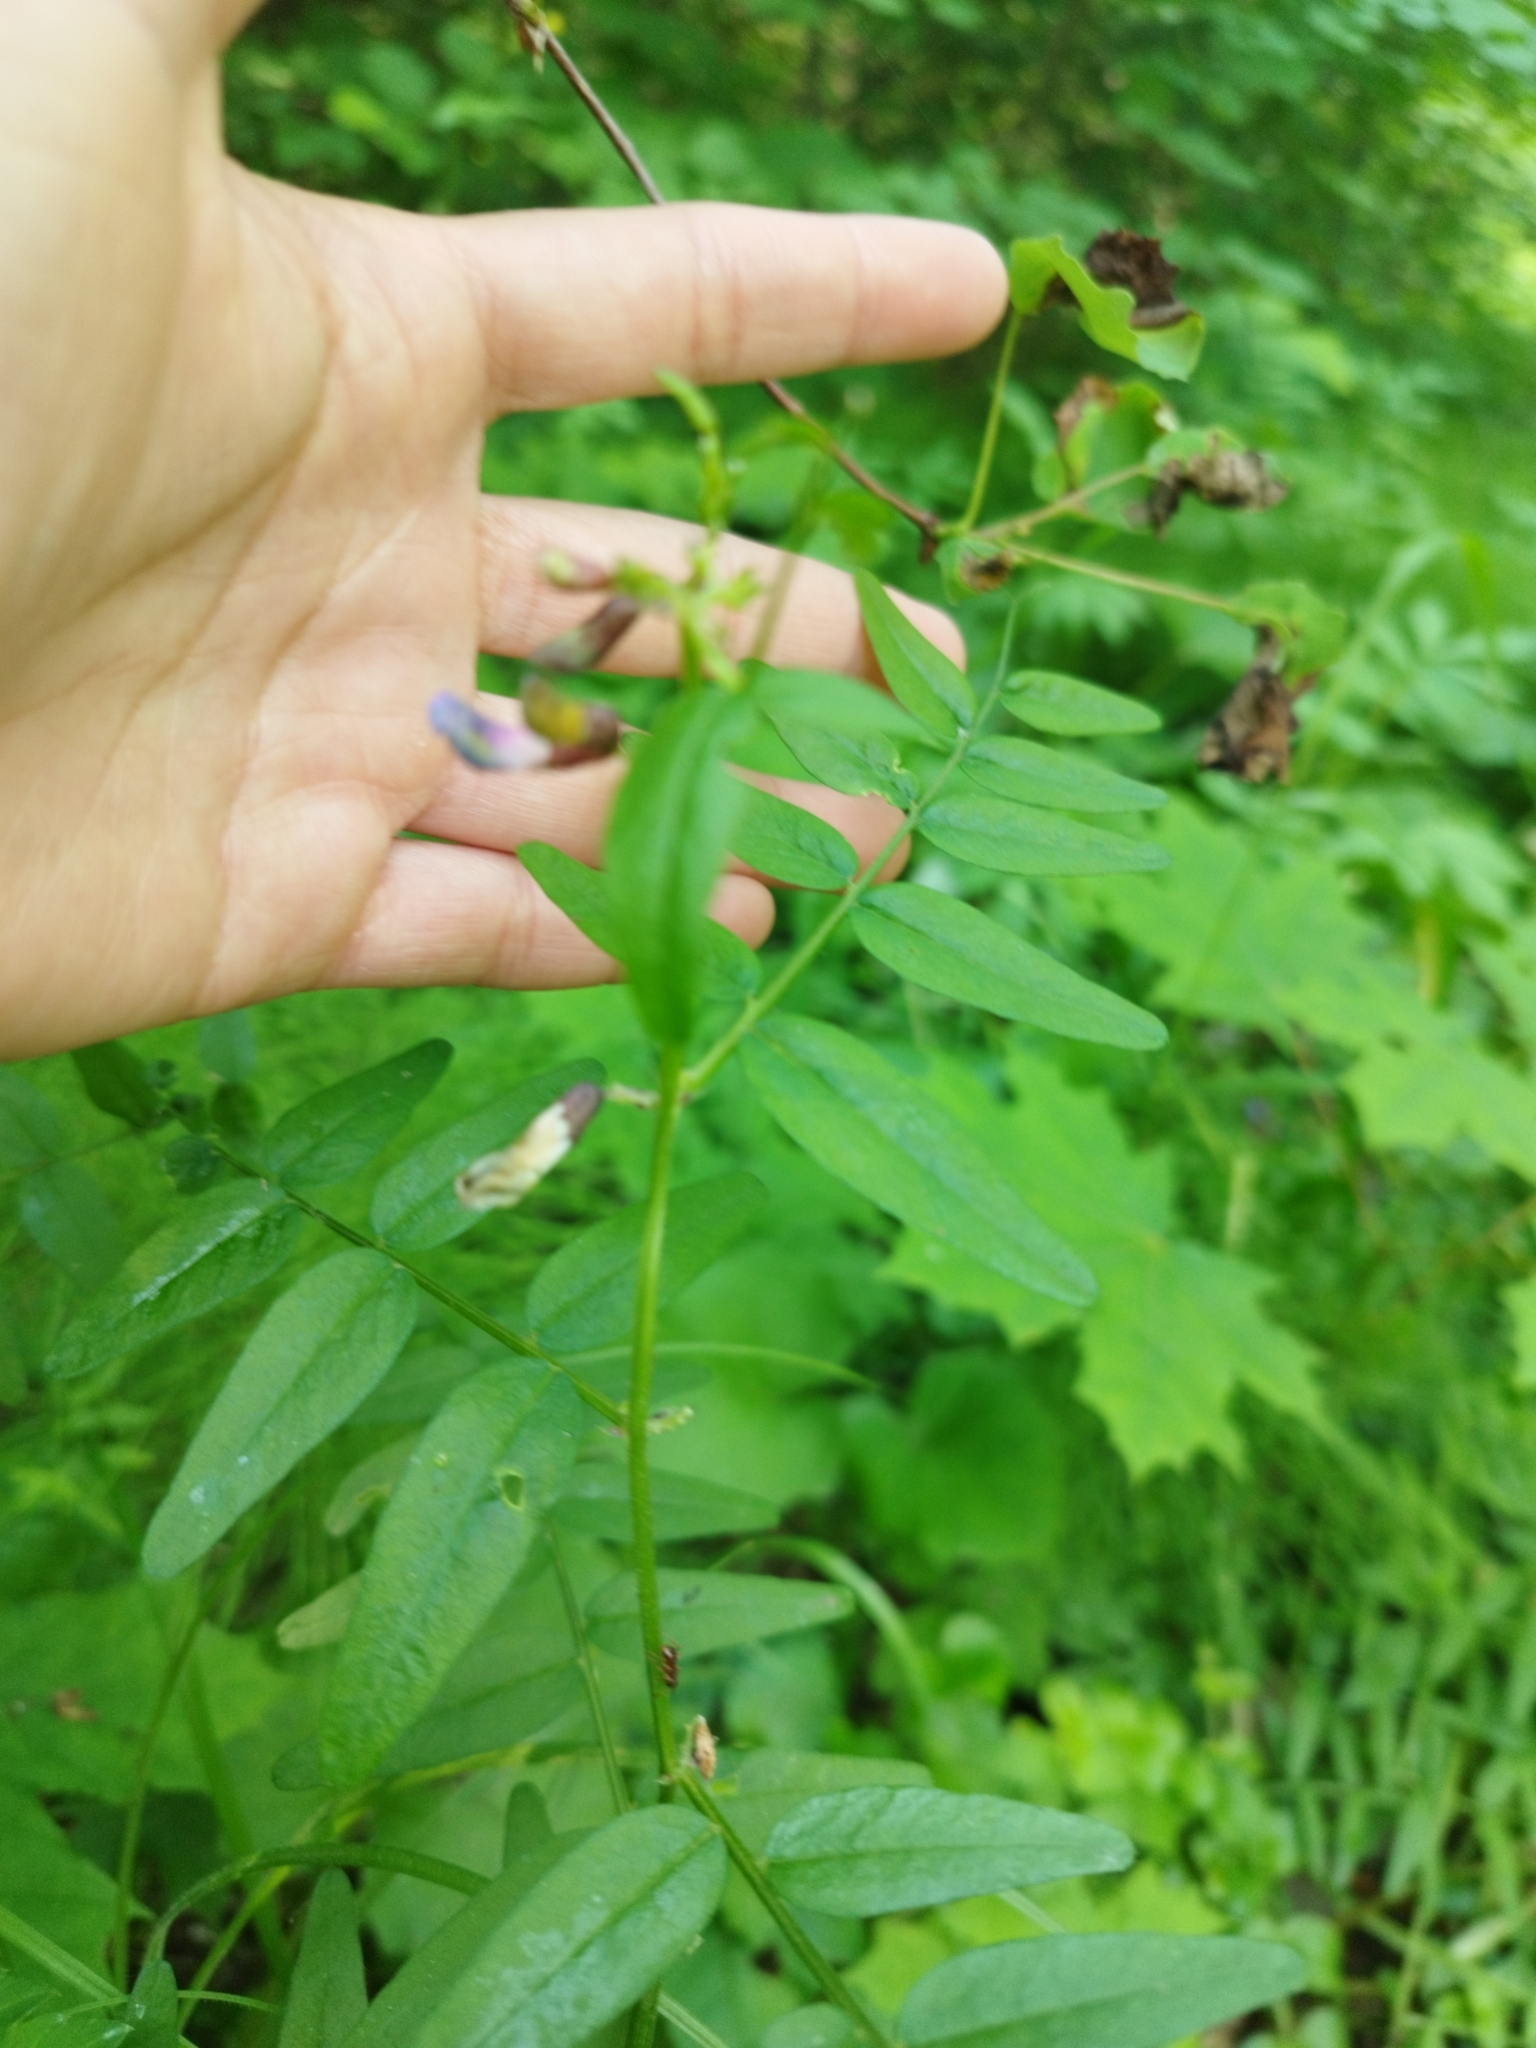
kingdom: Plantae
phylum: Tracheophyta
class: Magnoliopsida
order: Fabales
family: Fabaceae
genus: Vicia
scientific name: Vicia sepium
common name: Bush vetch
